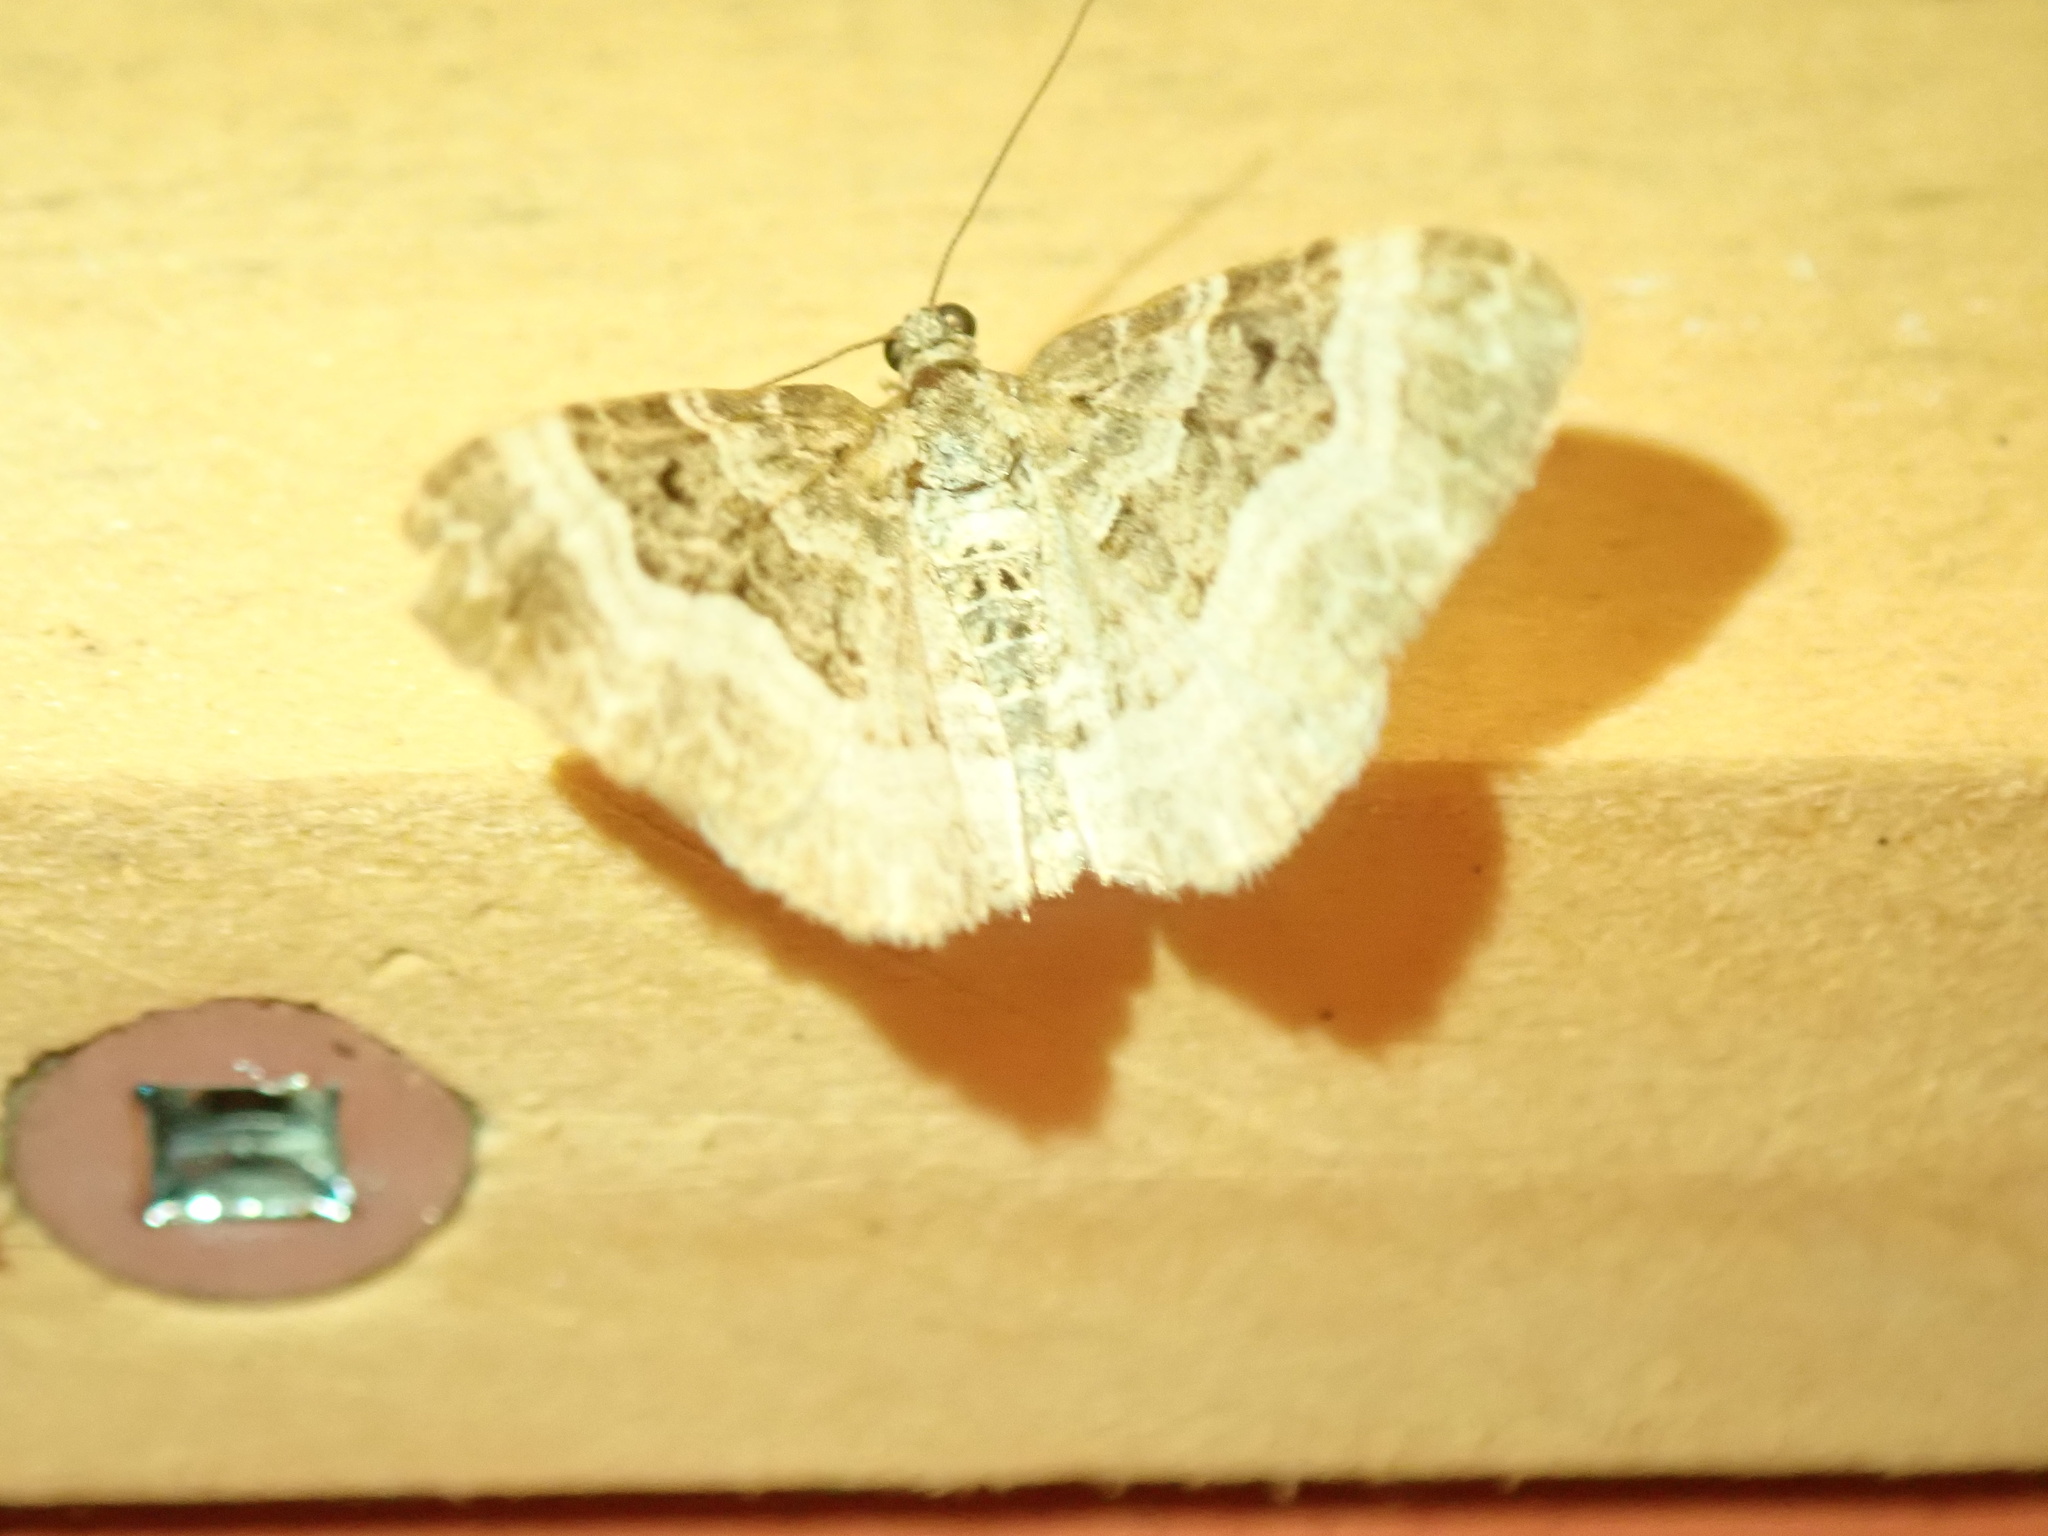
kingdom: Animalia
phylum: Arthropoda
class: Insecta
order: Lepidoptera
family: Geometridae
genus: Epirrhoe
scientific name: Epirrhoe alternata
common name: Common carpet
